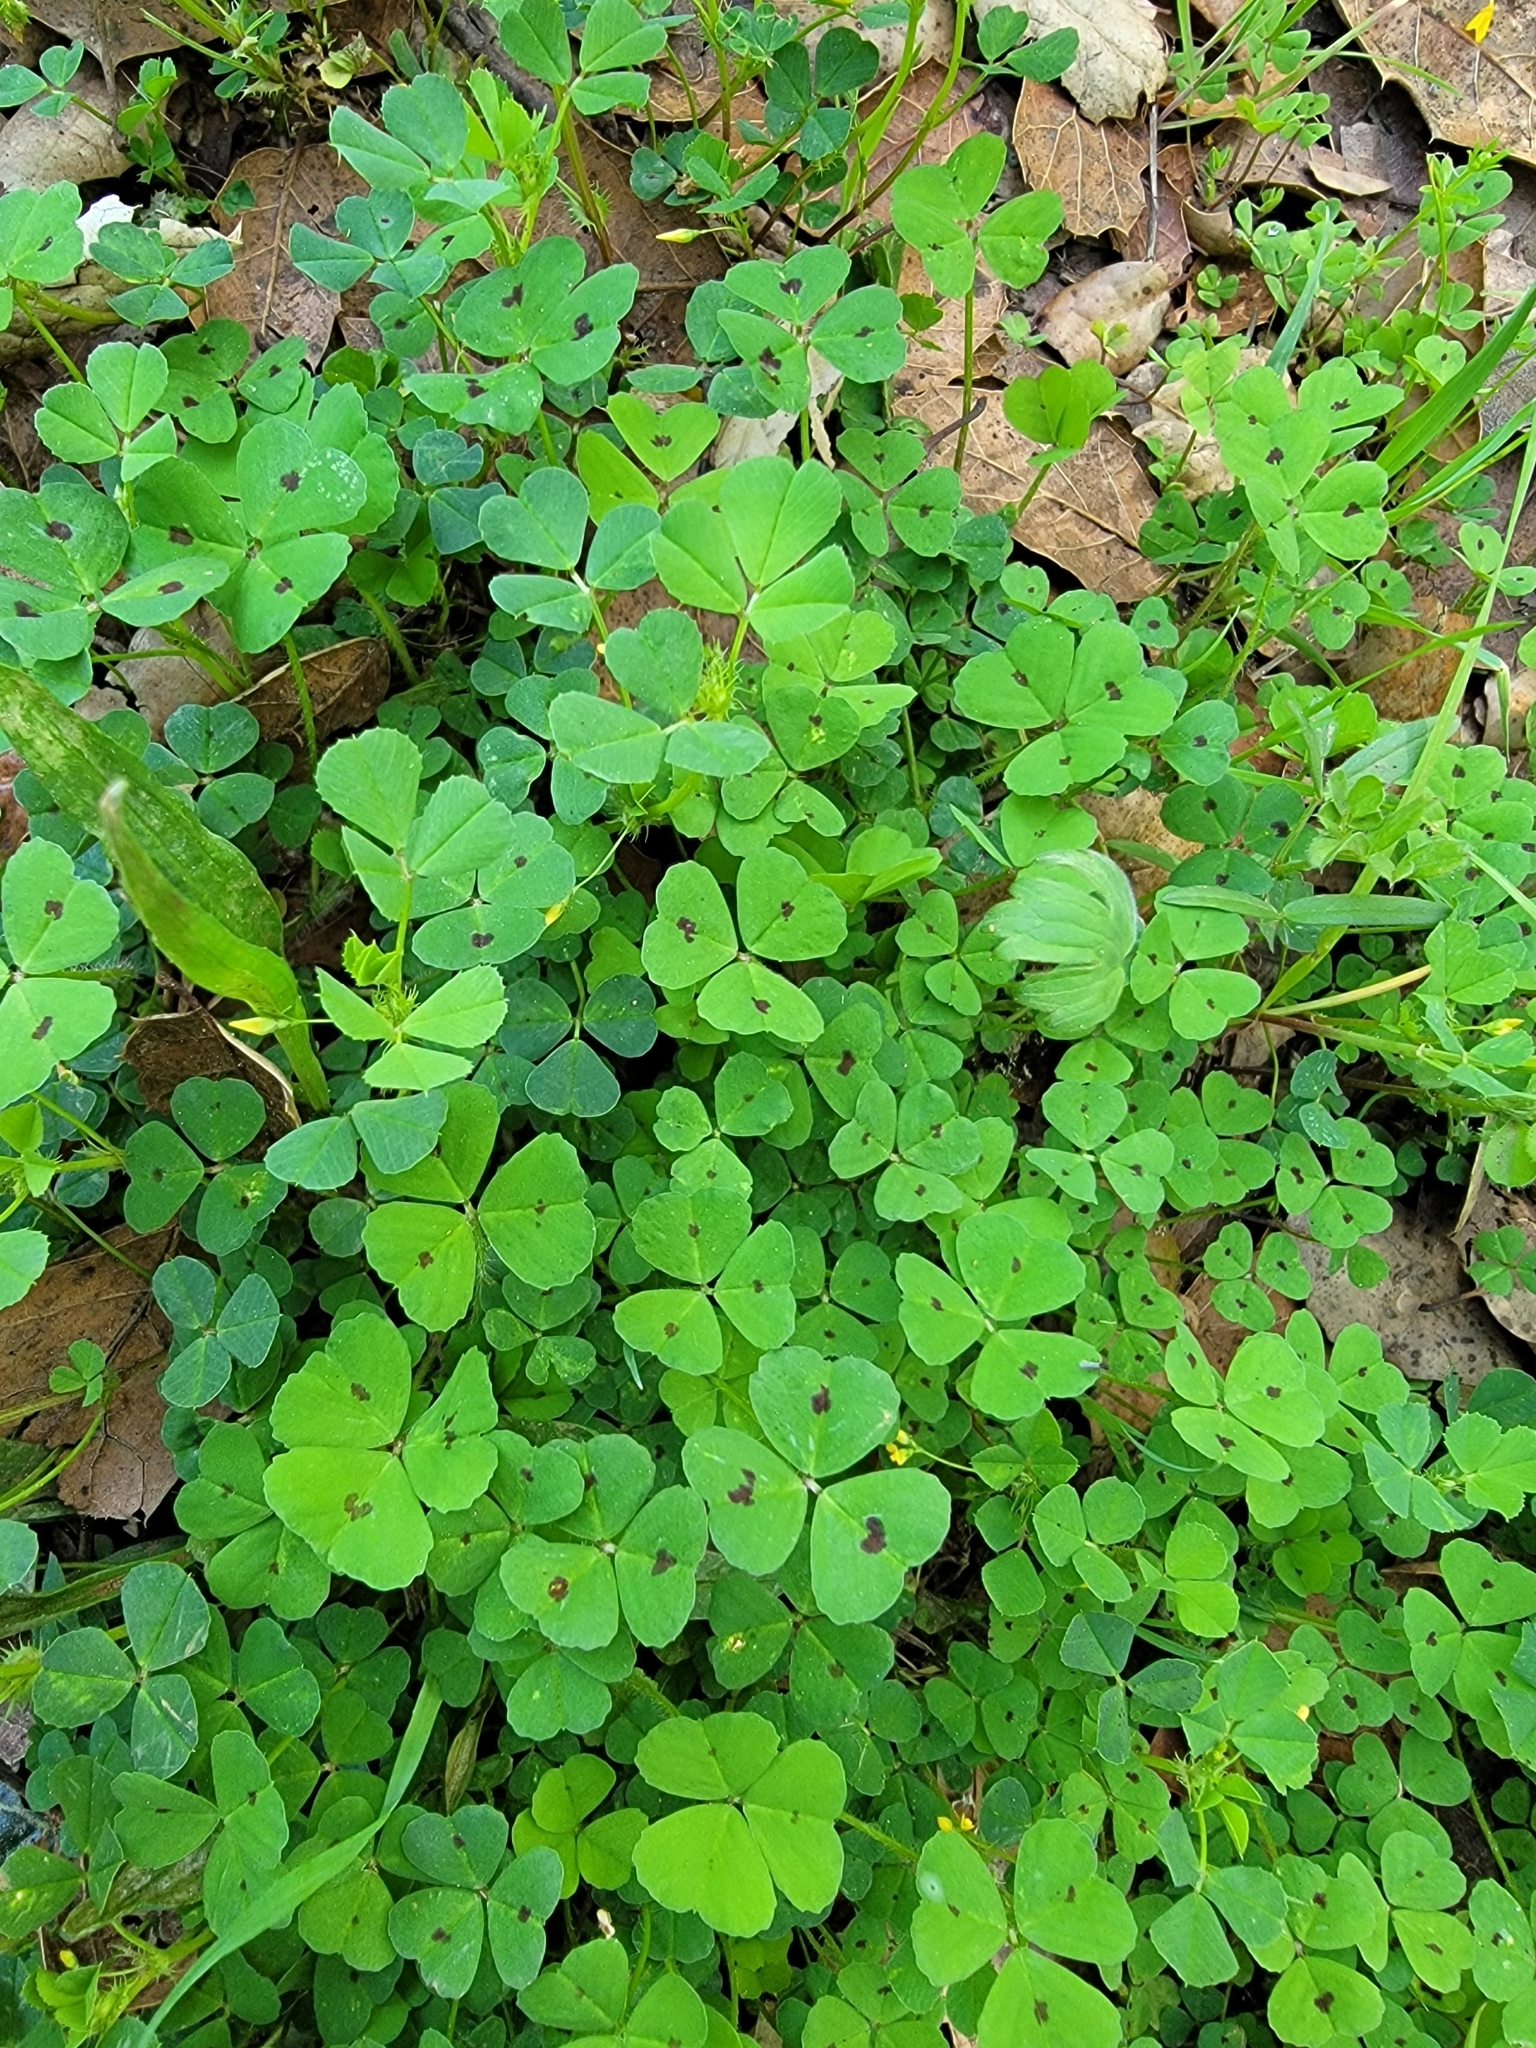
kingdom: Plantae
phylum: Tracheophyta
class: Magnoliopsida
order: Fabales
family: Fabaceae
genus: Medicago
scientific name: Medicago arabica
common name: Spotted medick
